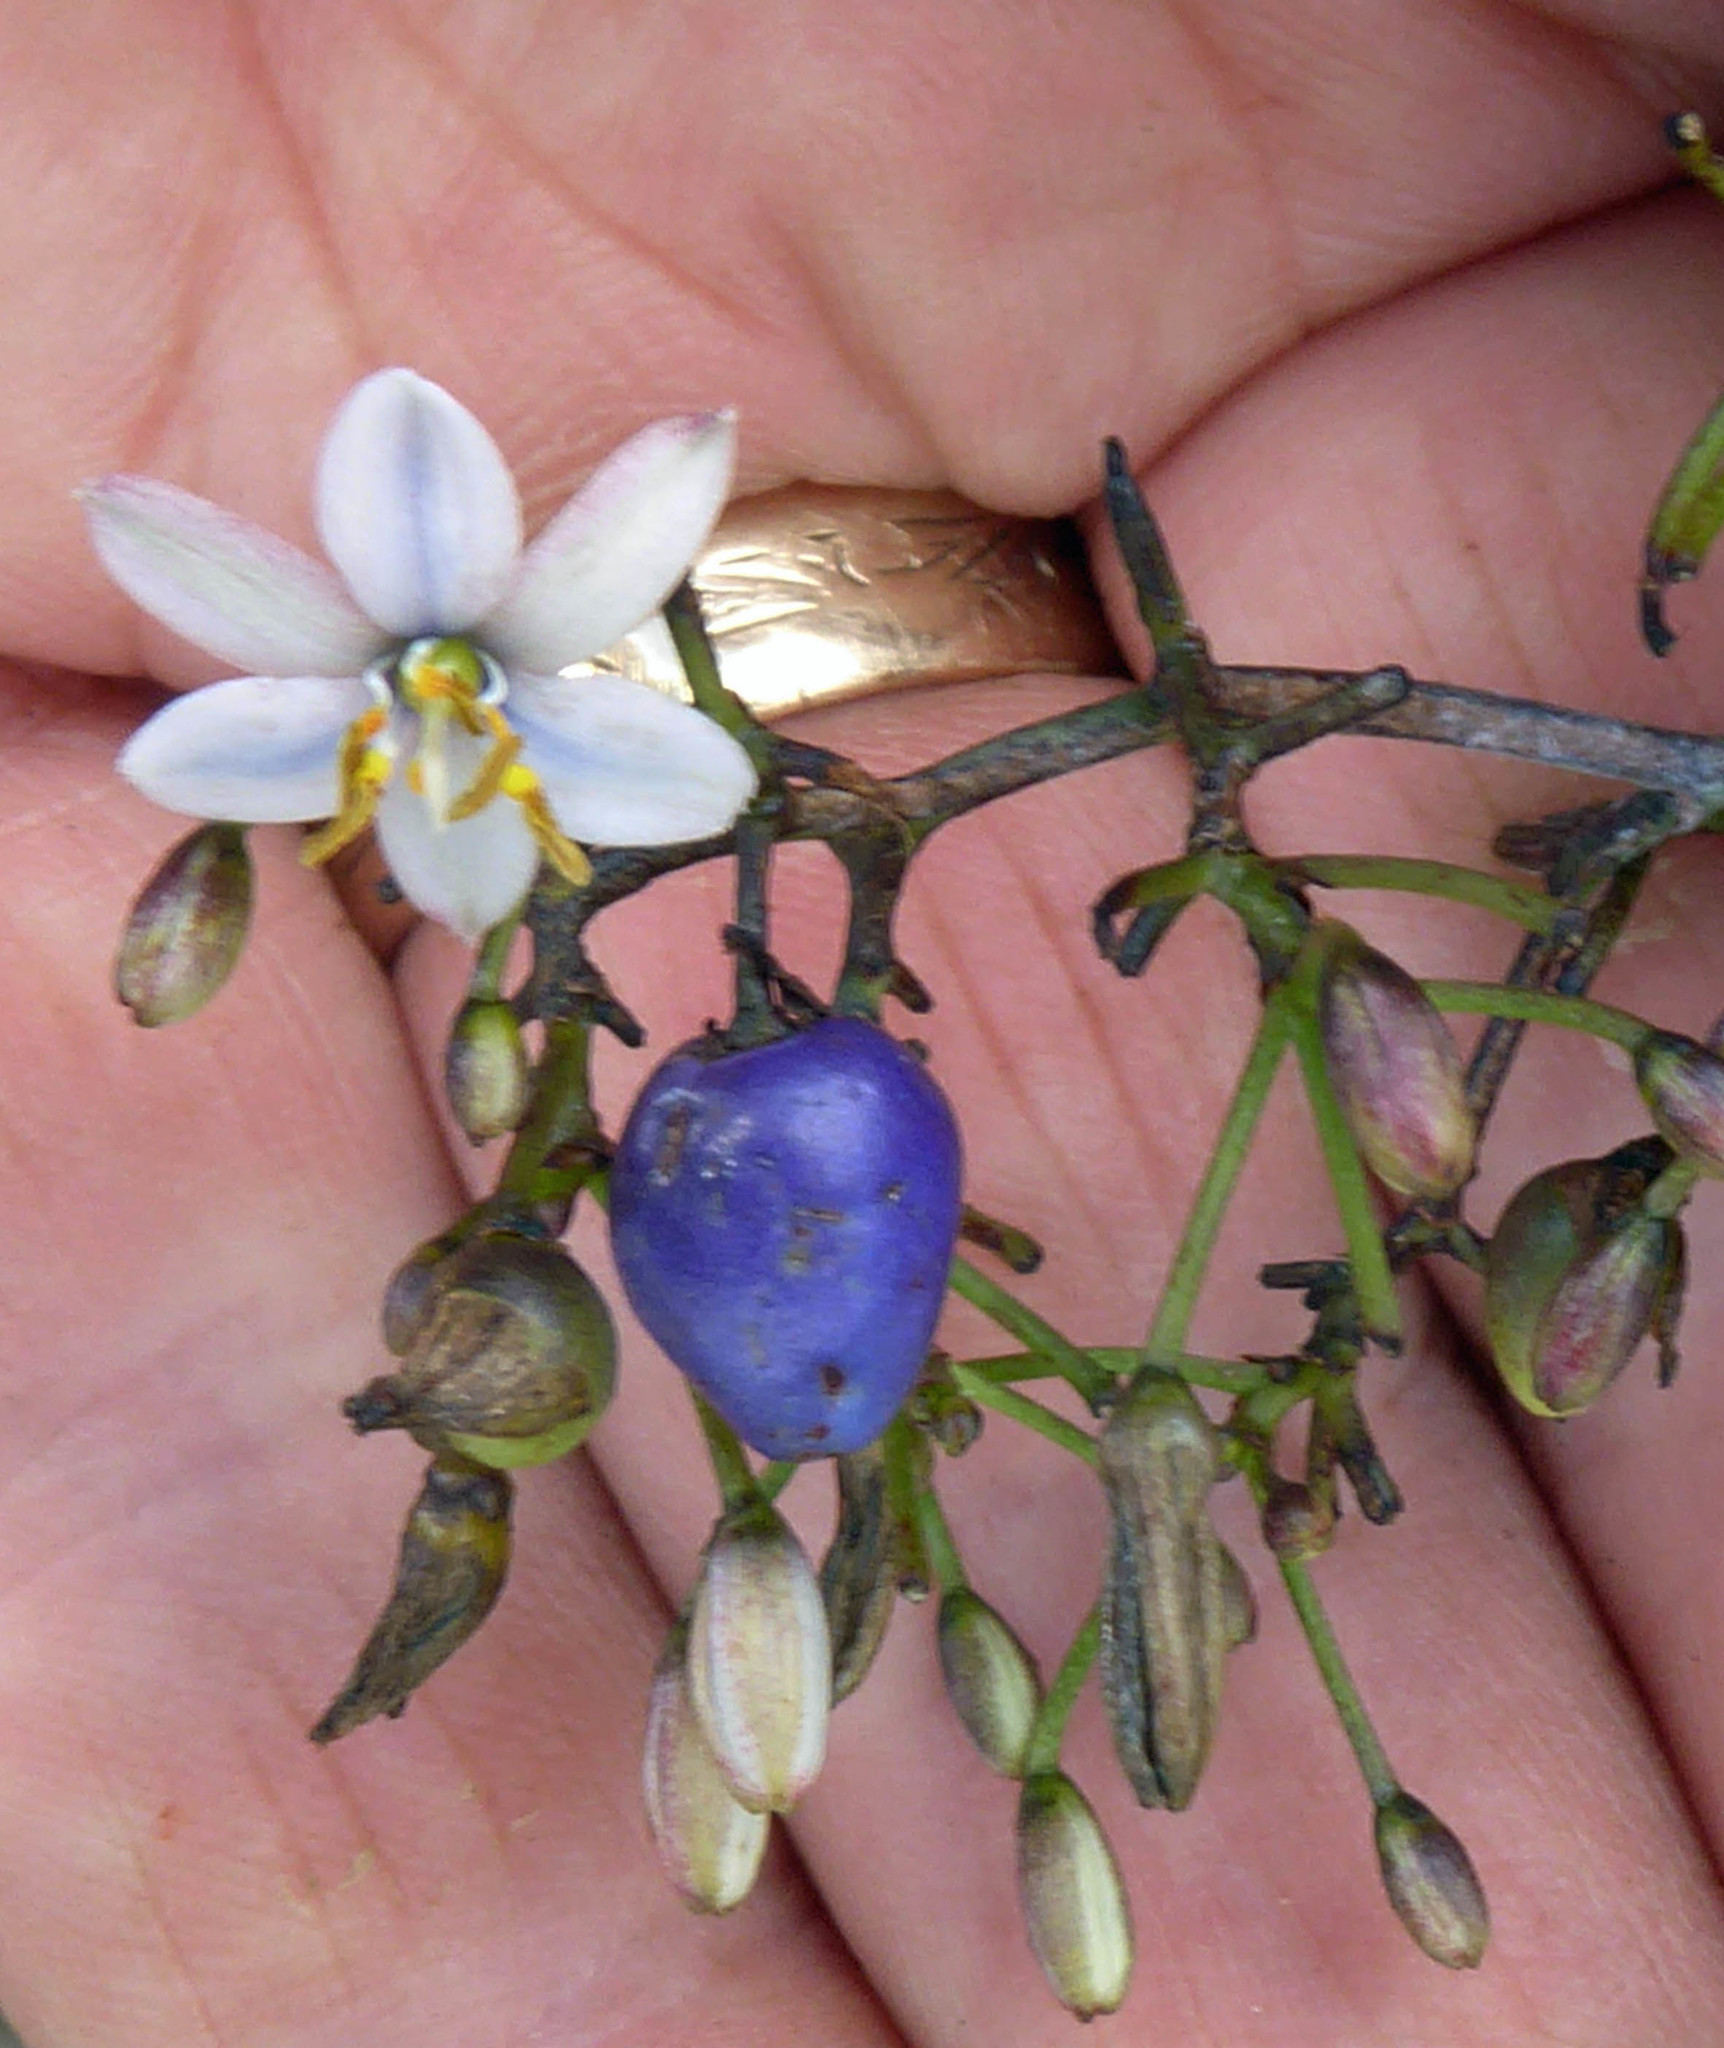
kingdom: Plantae
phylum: Tracheophyta
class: Liliopsida
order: Asparagales
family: Asphodelaceae
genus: Dianella
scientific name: Dianella adenanthera
